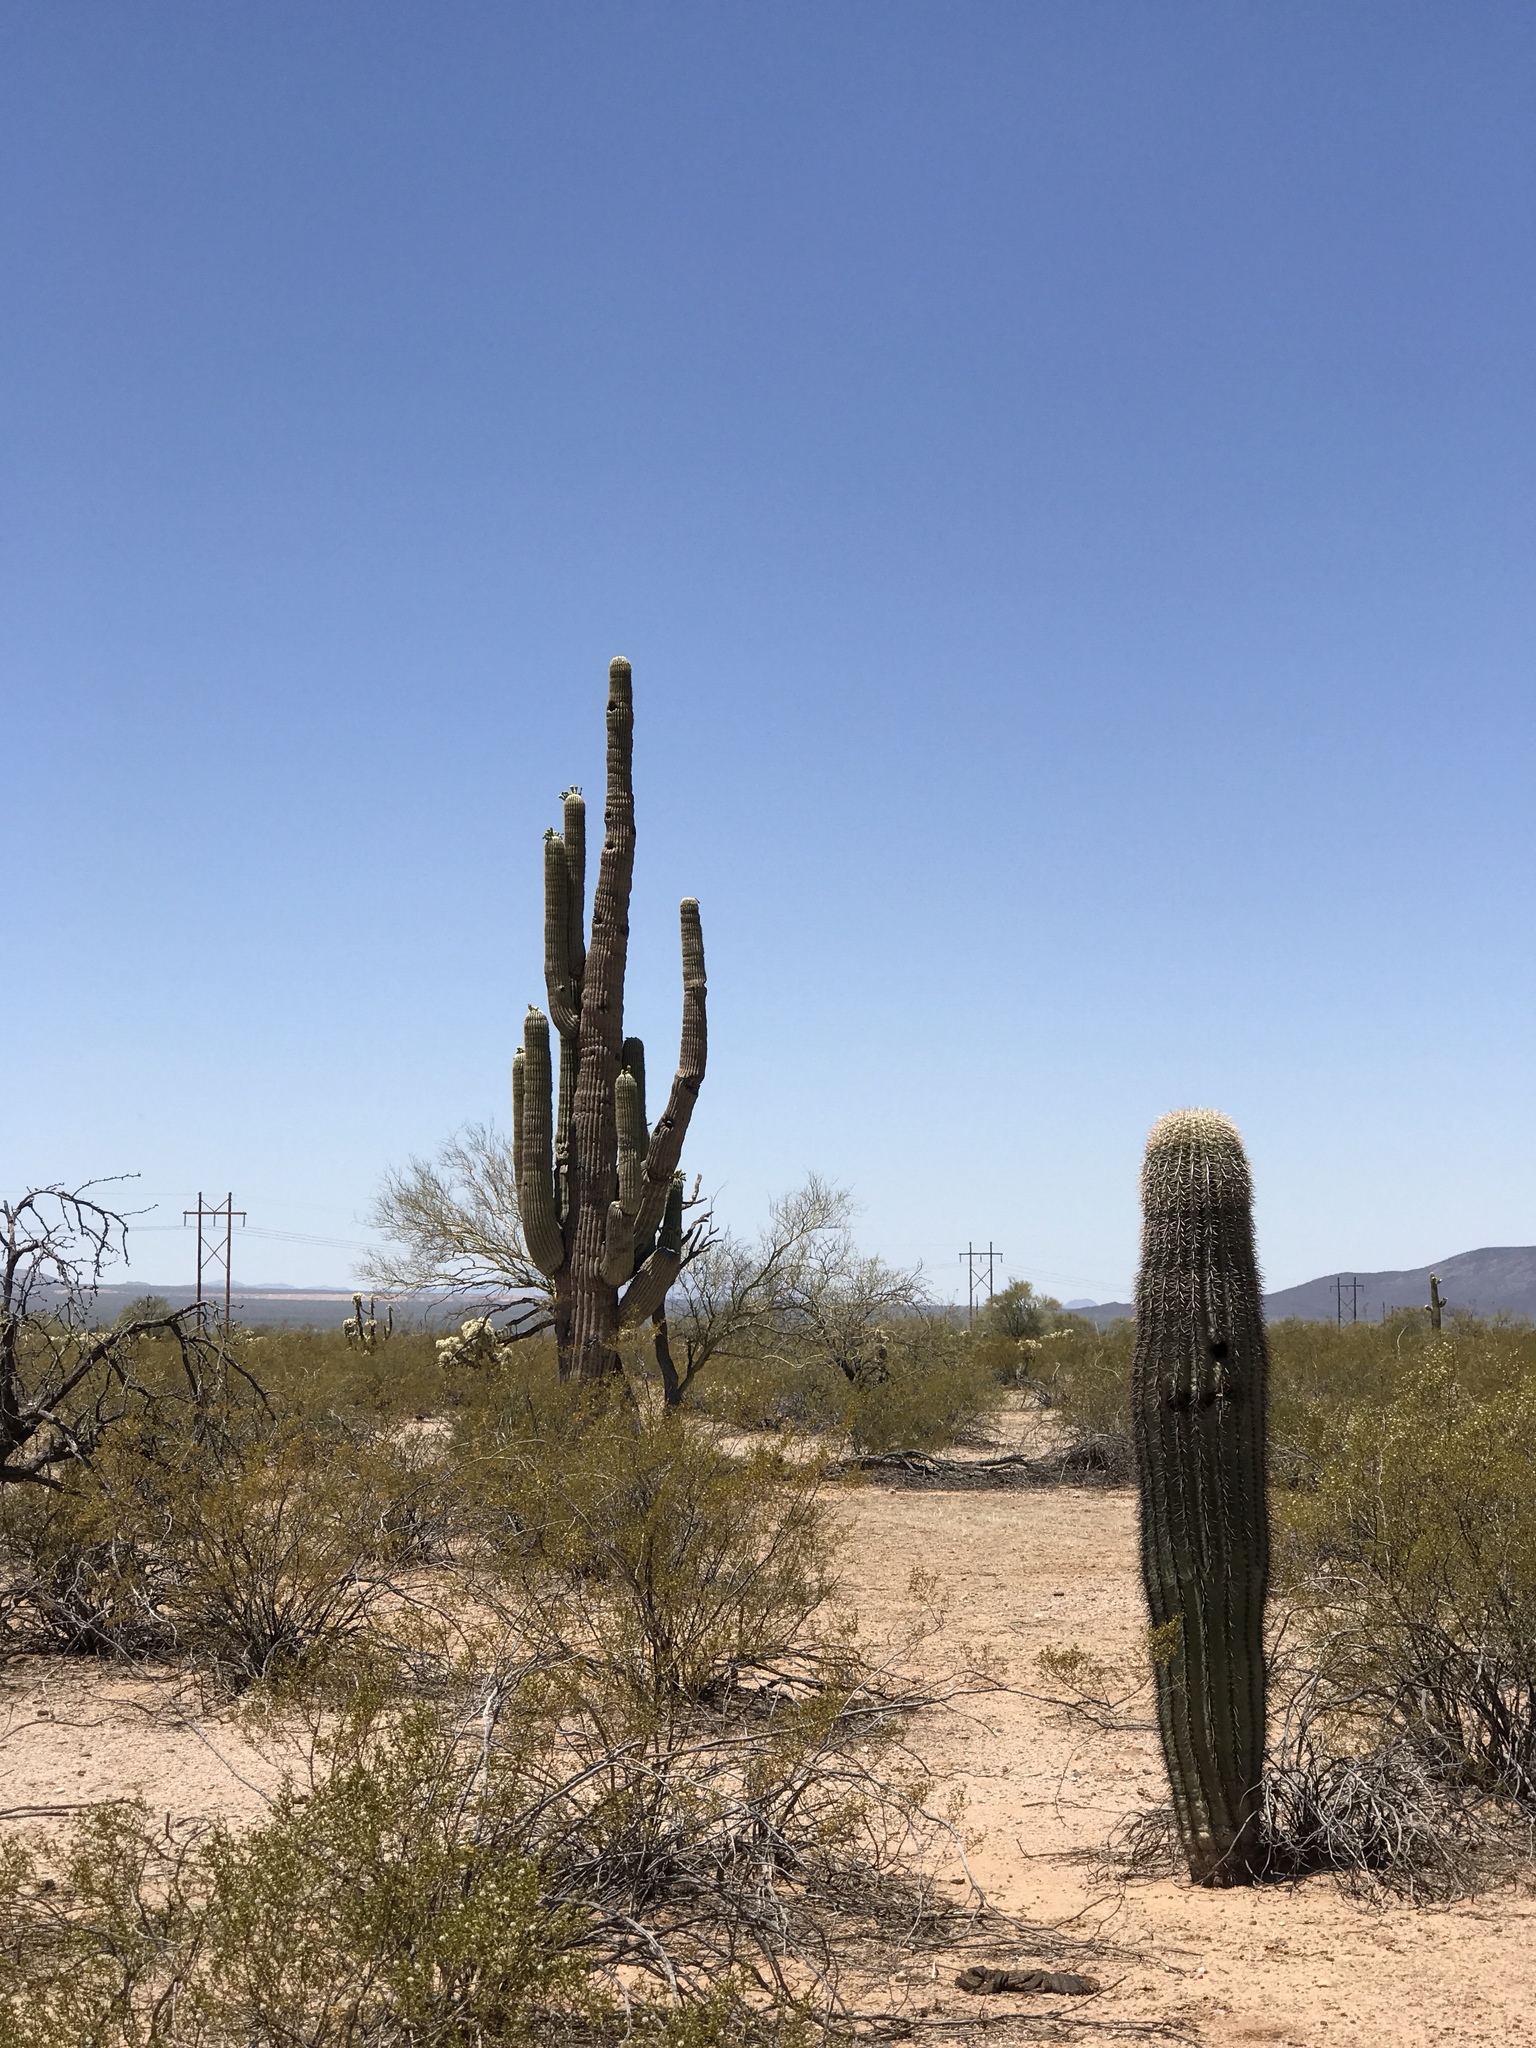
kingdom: Plantae
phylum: Tracheophyta
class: Magnoliopsida
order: Caryophyllales
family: Cactaceae
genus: Carnegiea
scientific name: Carnegiea gigantea
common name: Saguaro
